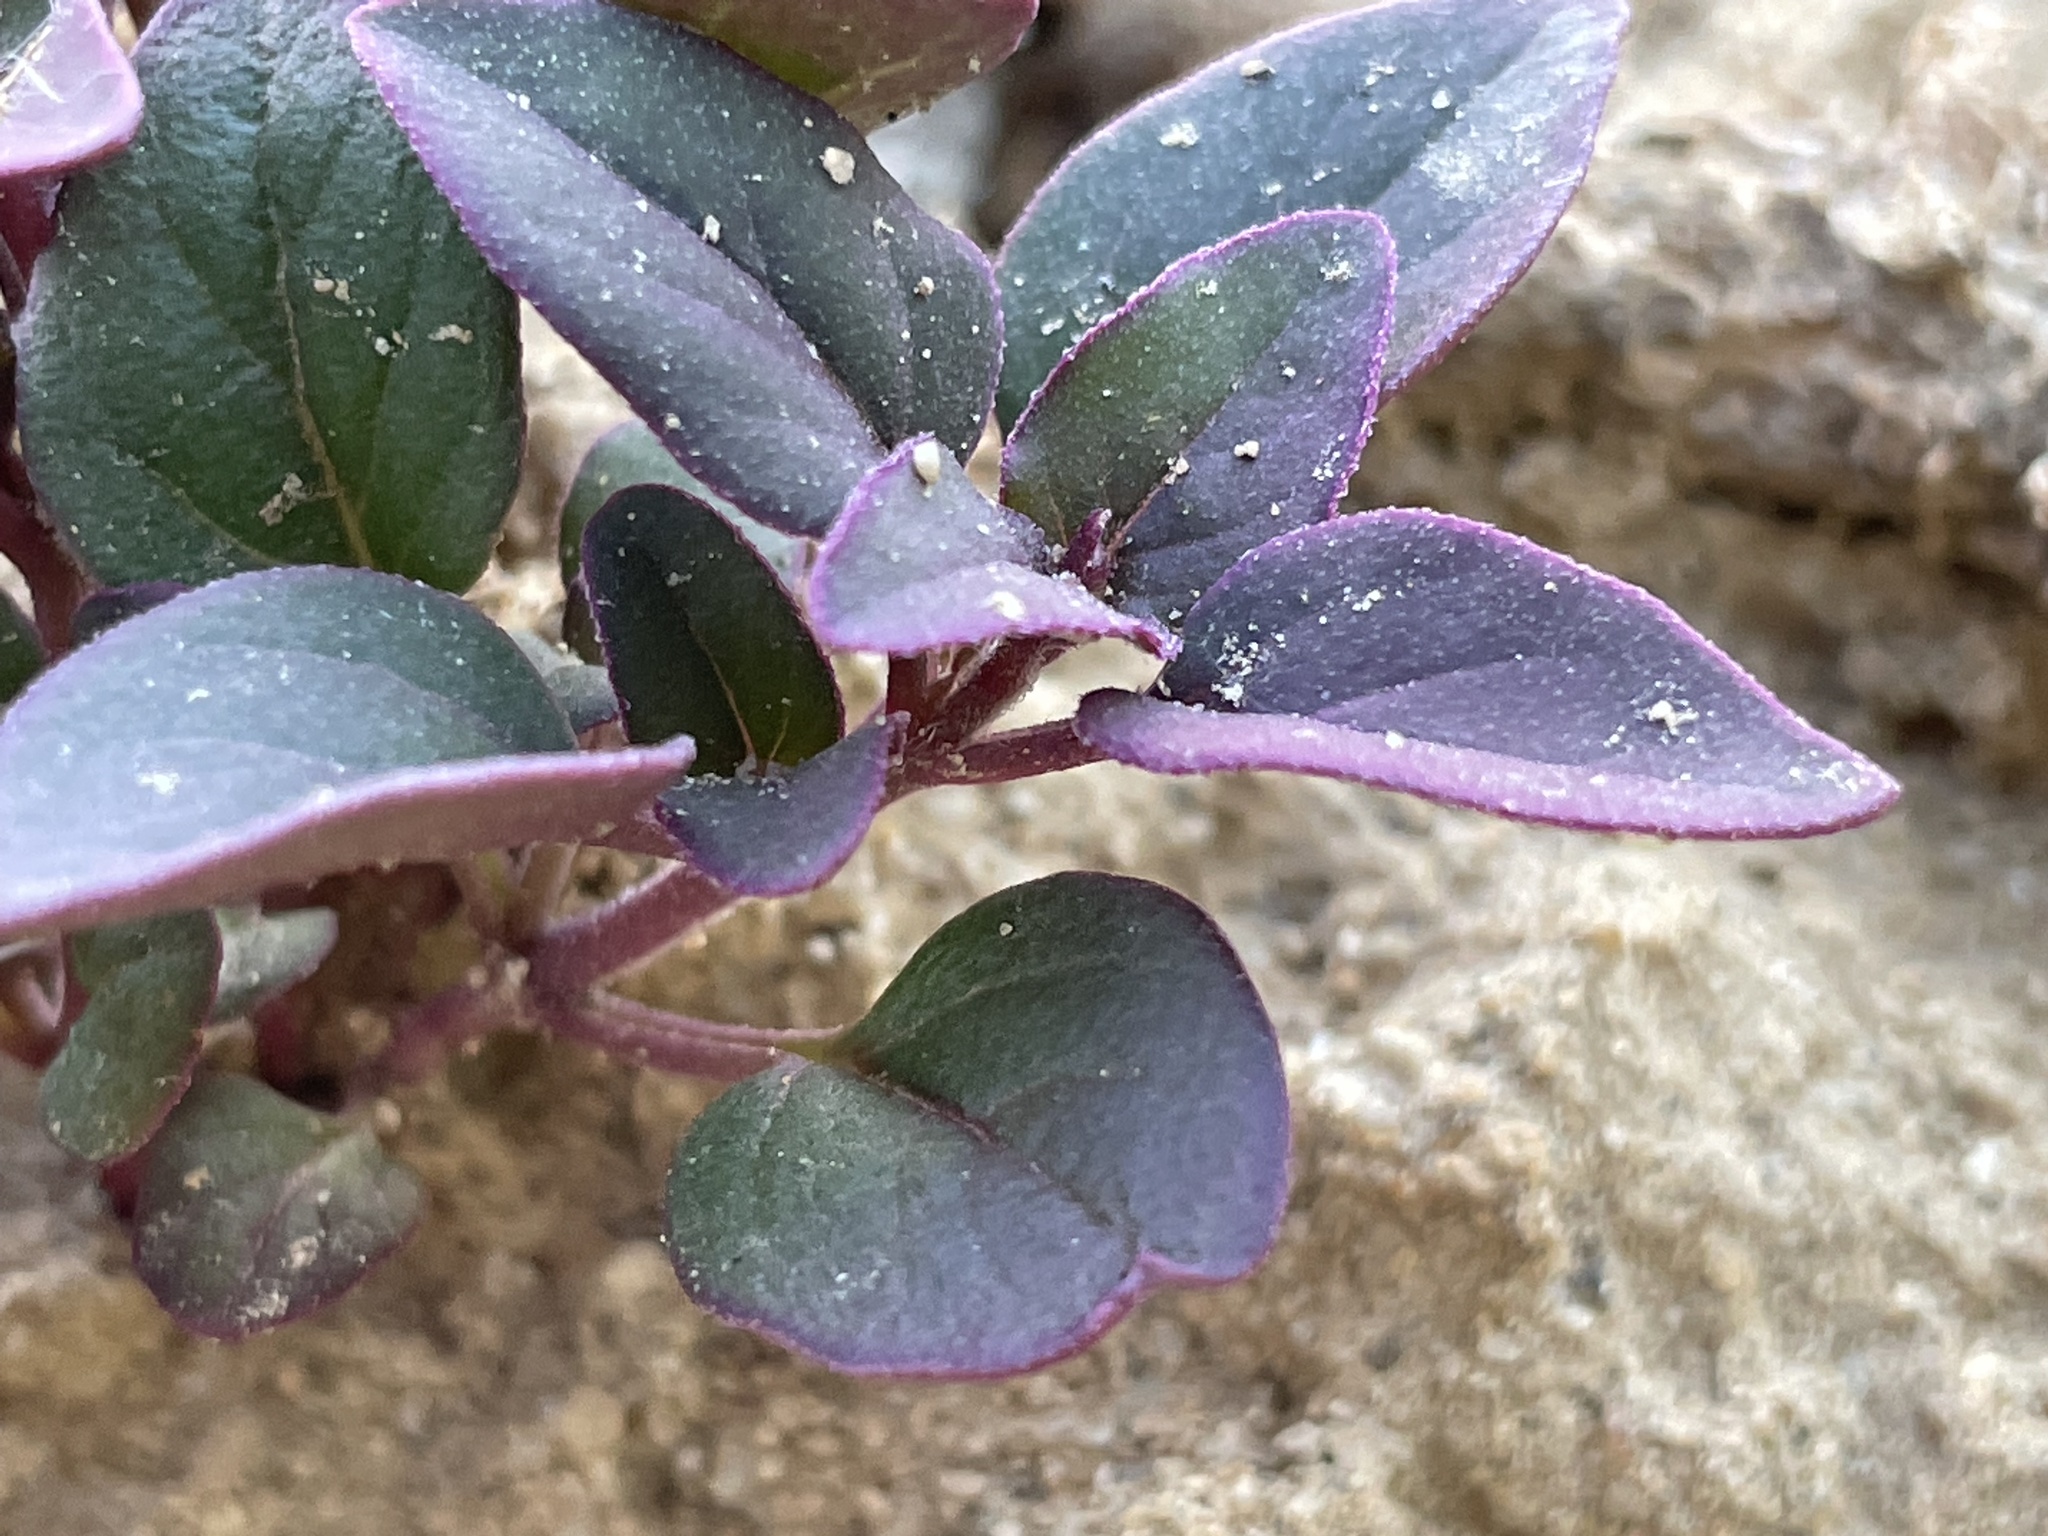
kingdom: Plantae
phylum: Tracheophyta
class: Magnoliopsida
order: Caryophyllales
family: Nyctaginaceae
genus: Mirabilis
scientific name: Mirabilis comata
